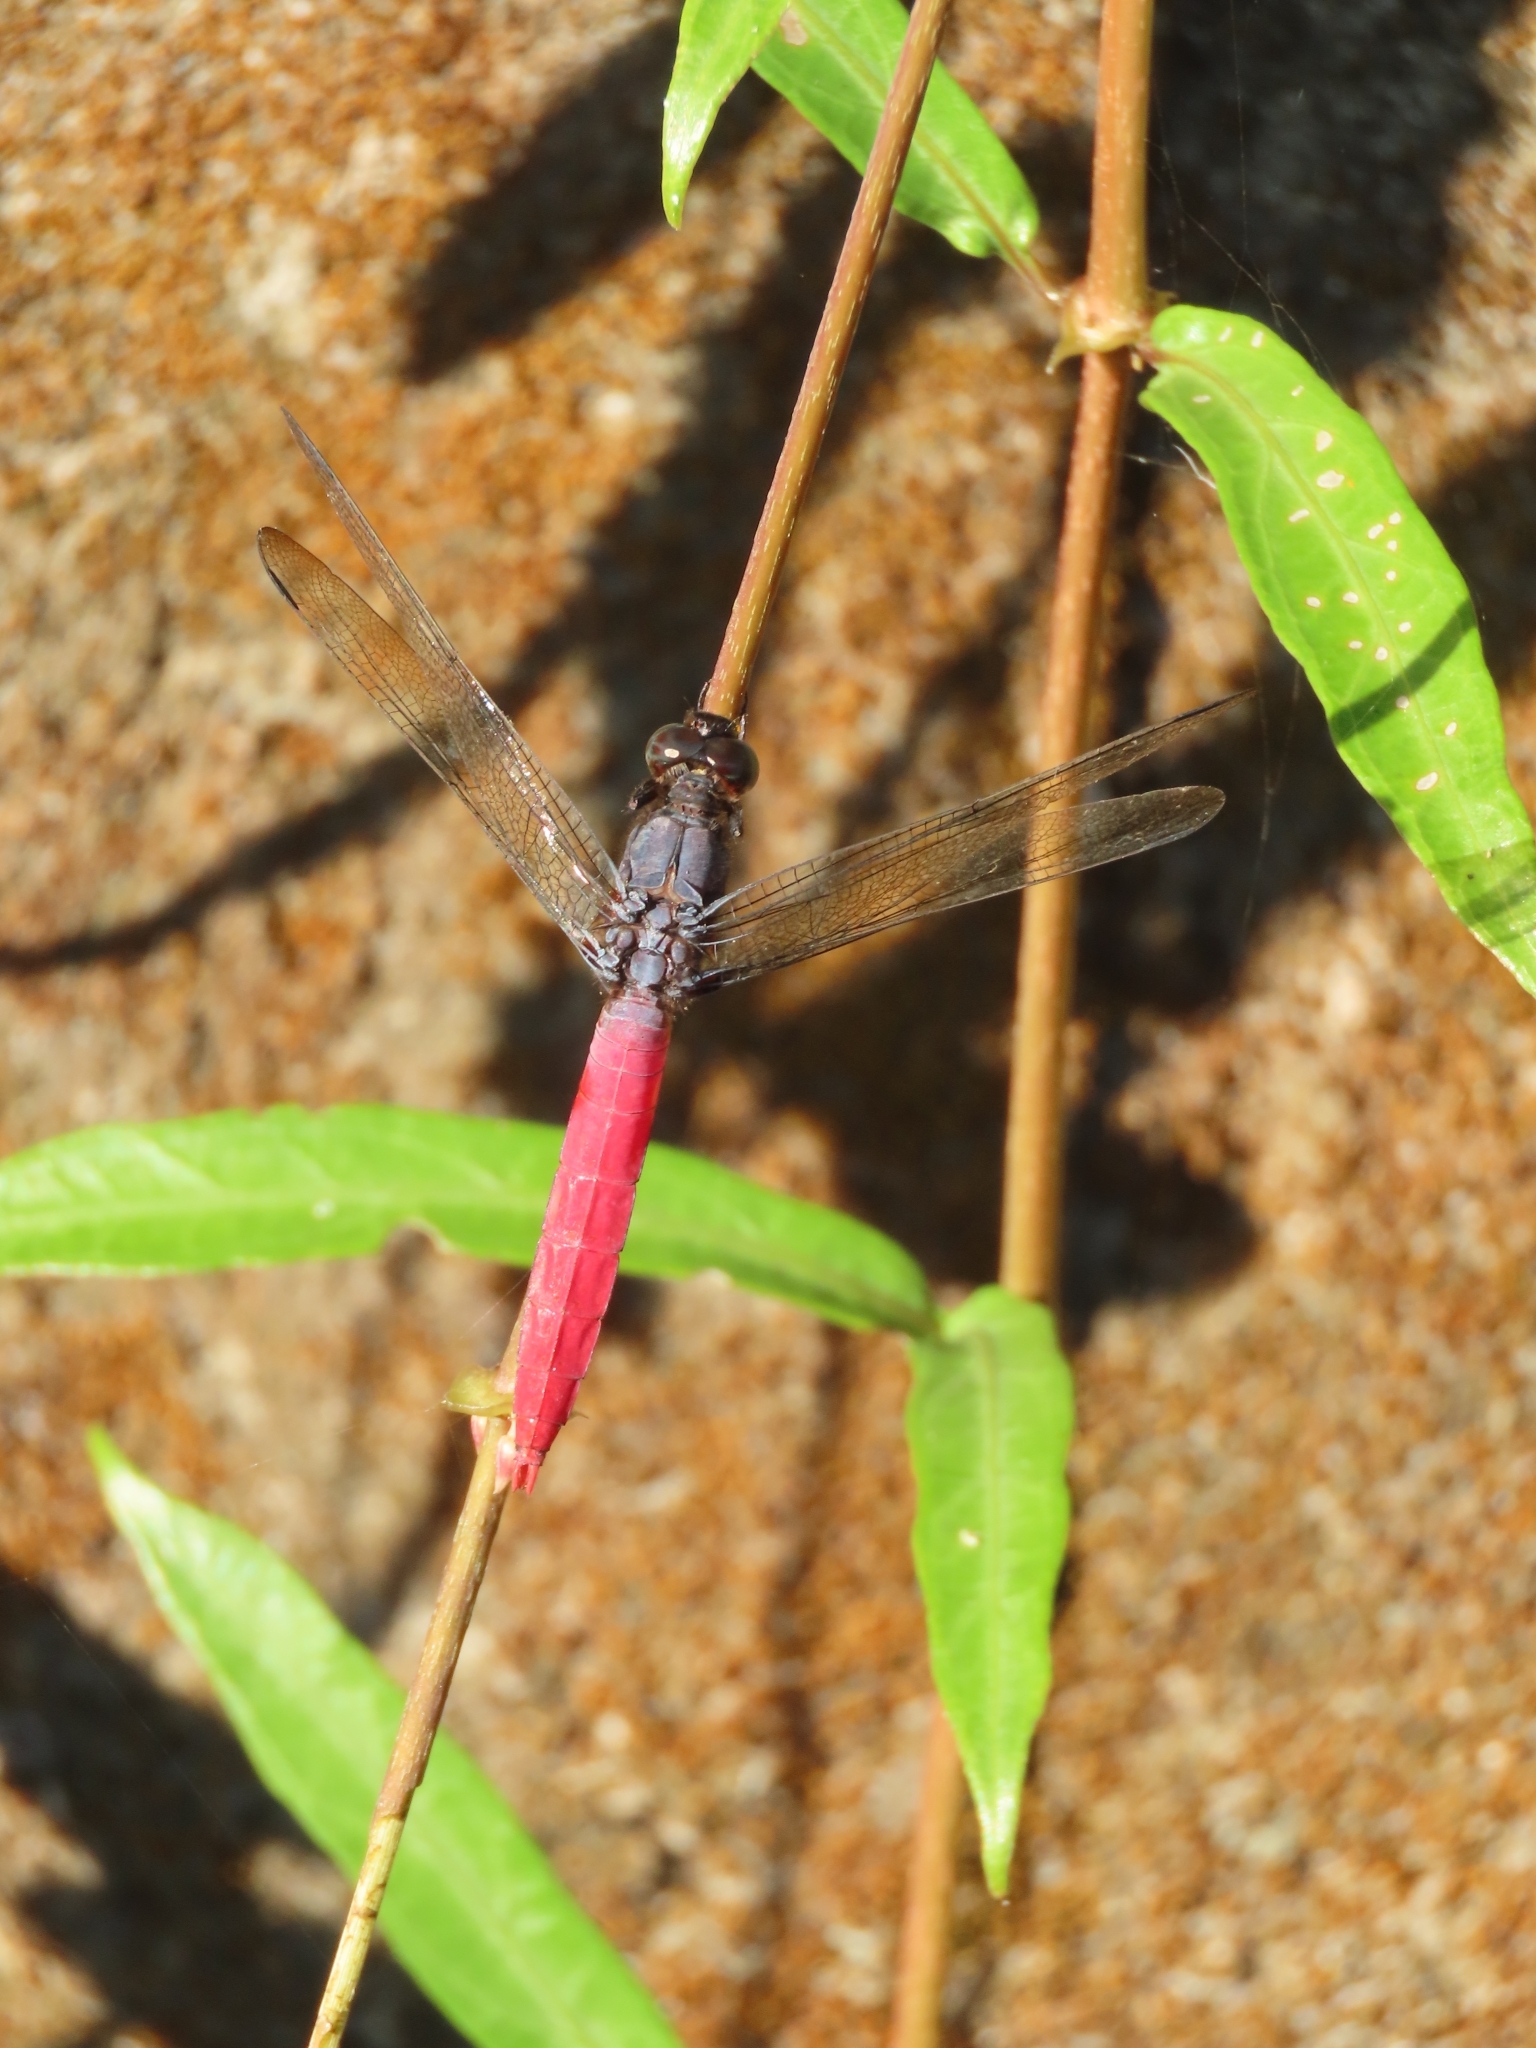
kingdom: Animalia
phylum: Arthropoda
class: Insecta
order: Odonata
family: Libellulidae
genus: Orthetrum
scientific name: Orthetrum pruinosum
